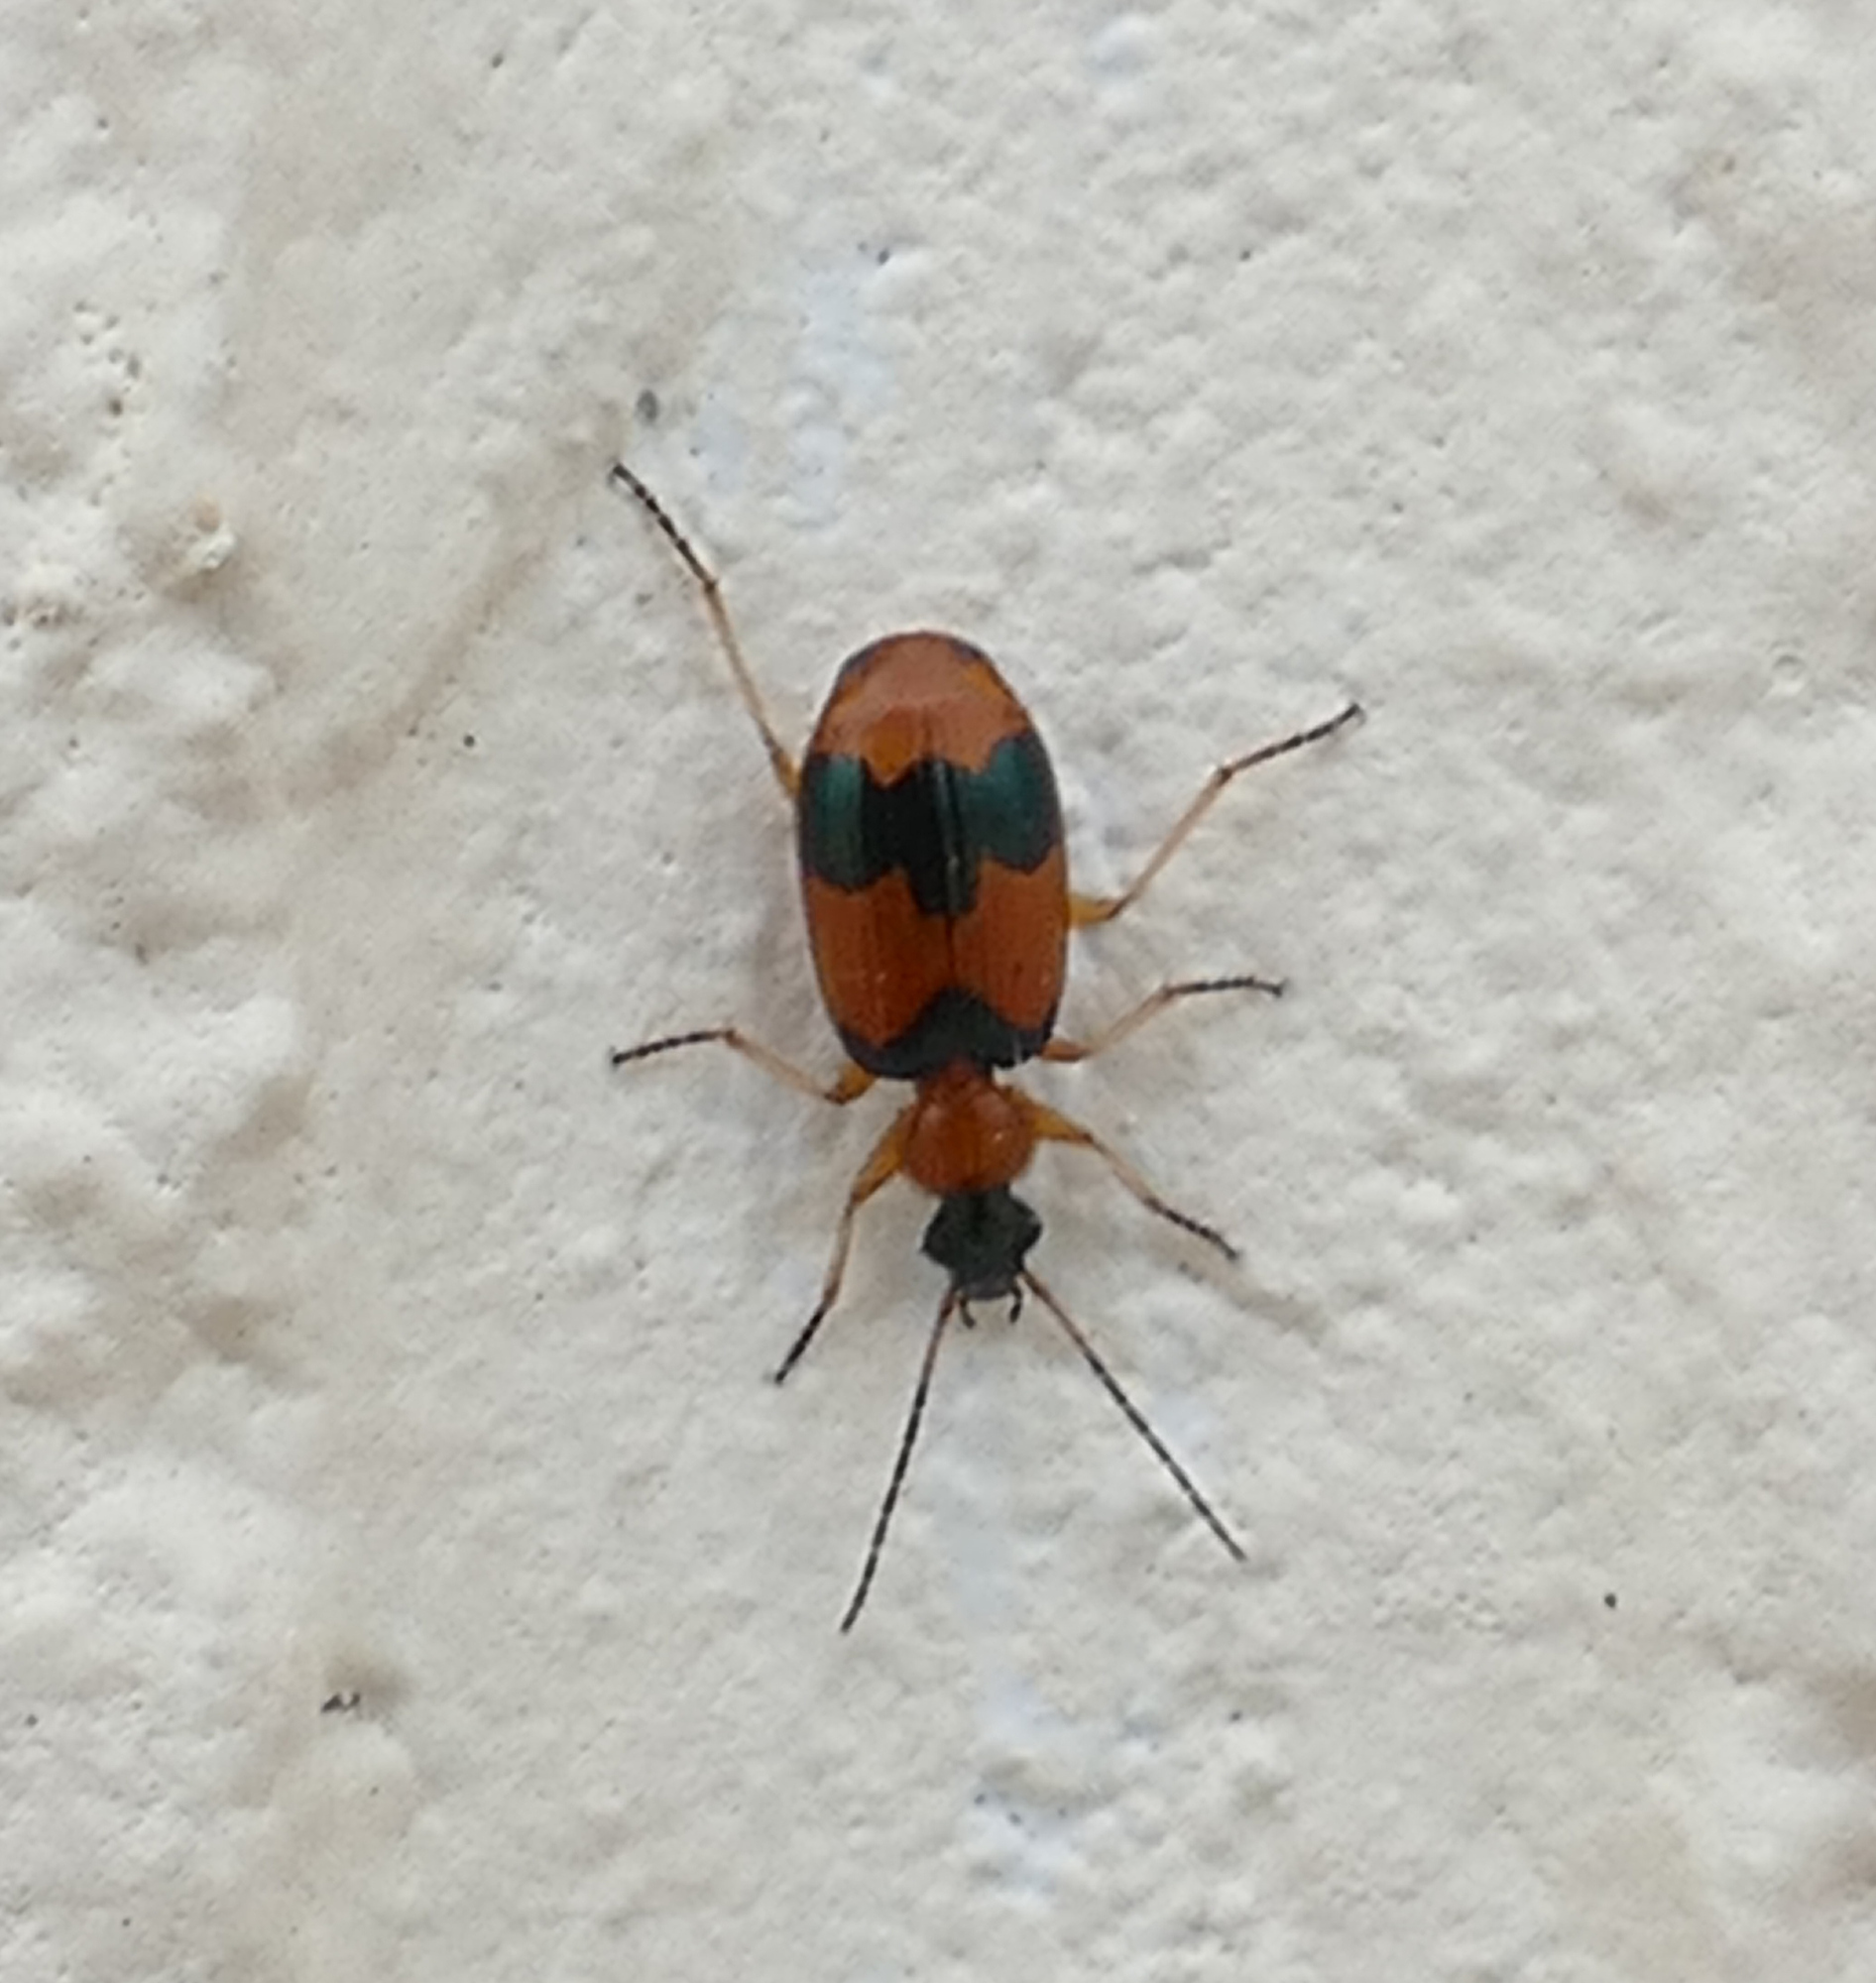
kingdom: Animalia
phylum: Arthropoda
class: Insecta
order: Coleoptera
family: Carabidae
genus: Lebia
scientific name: Lebia pulchella
